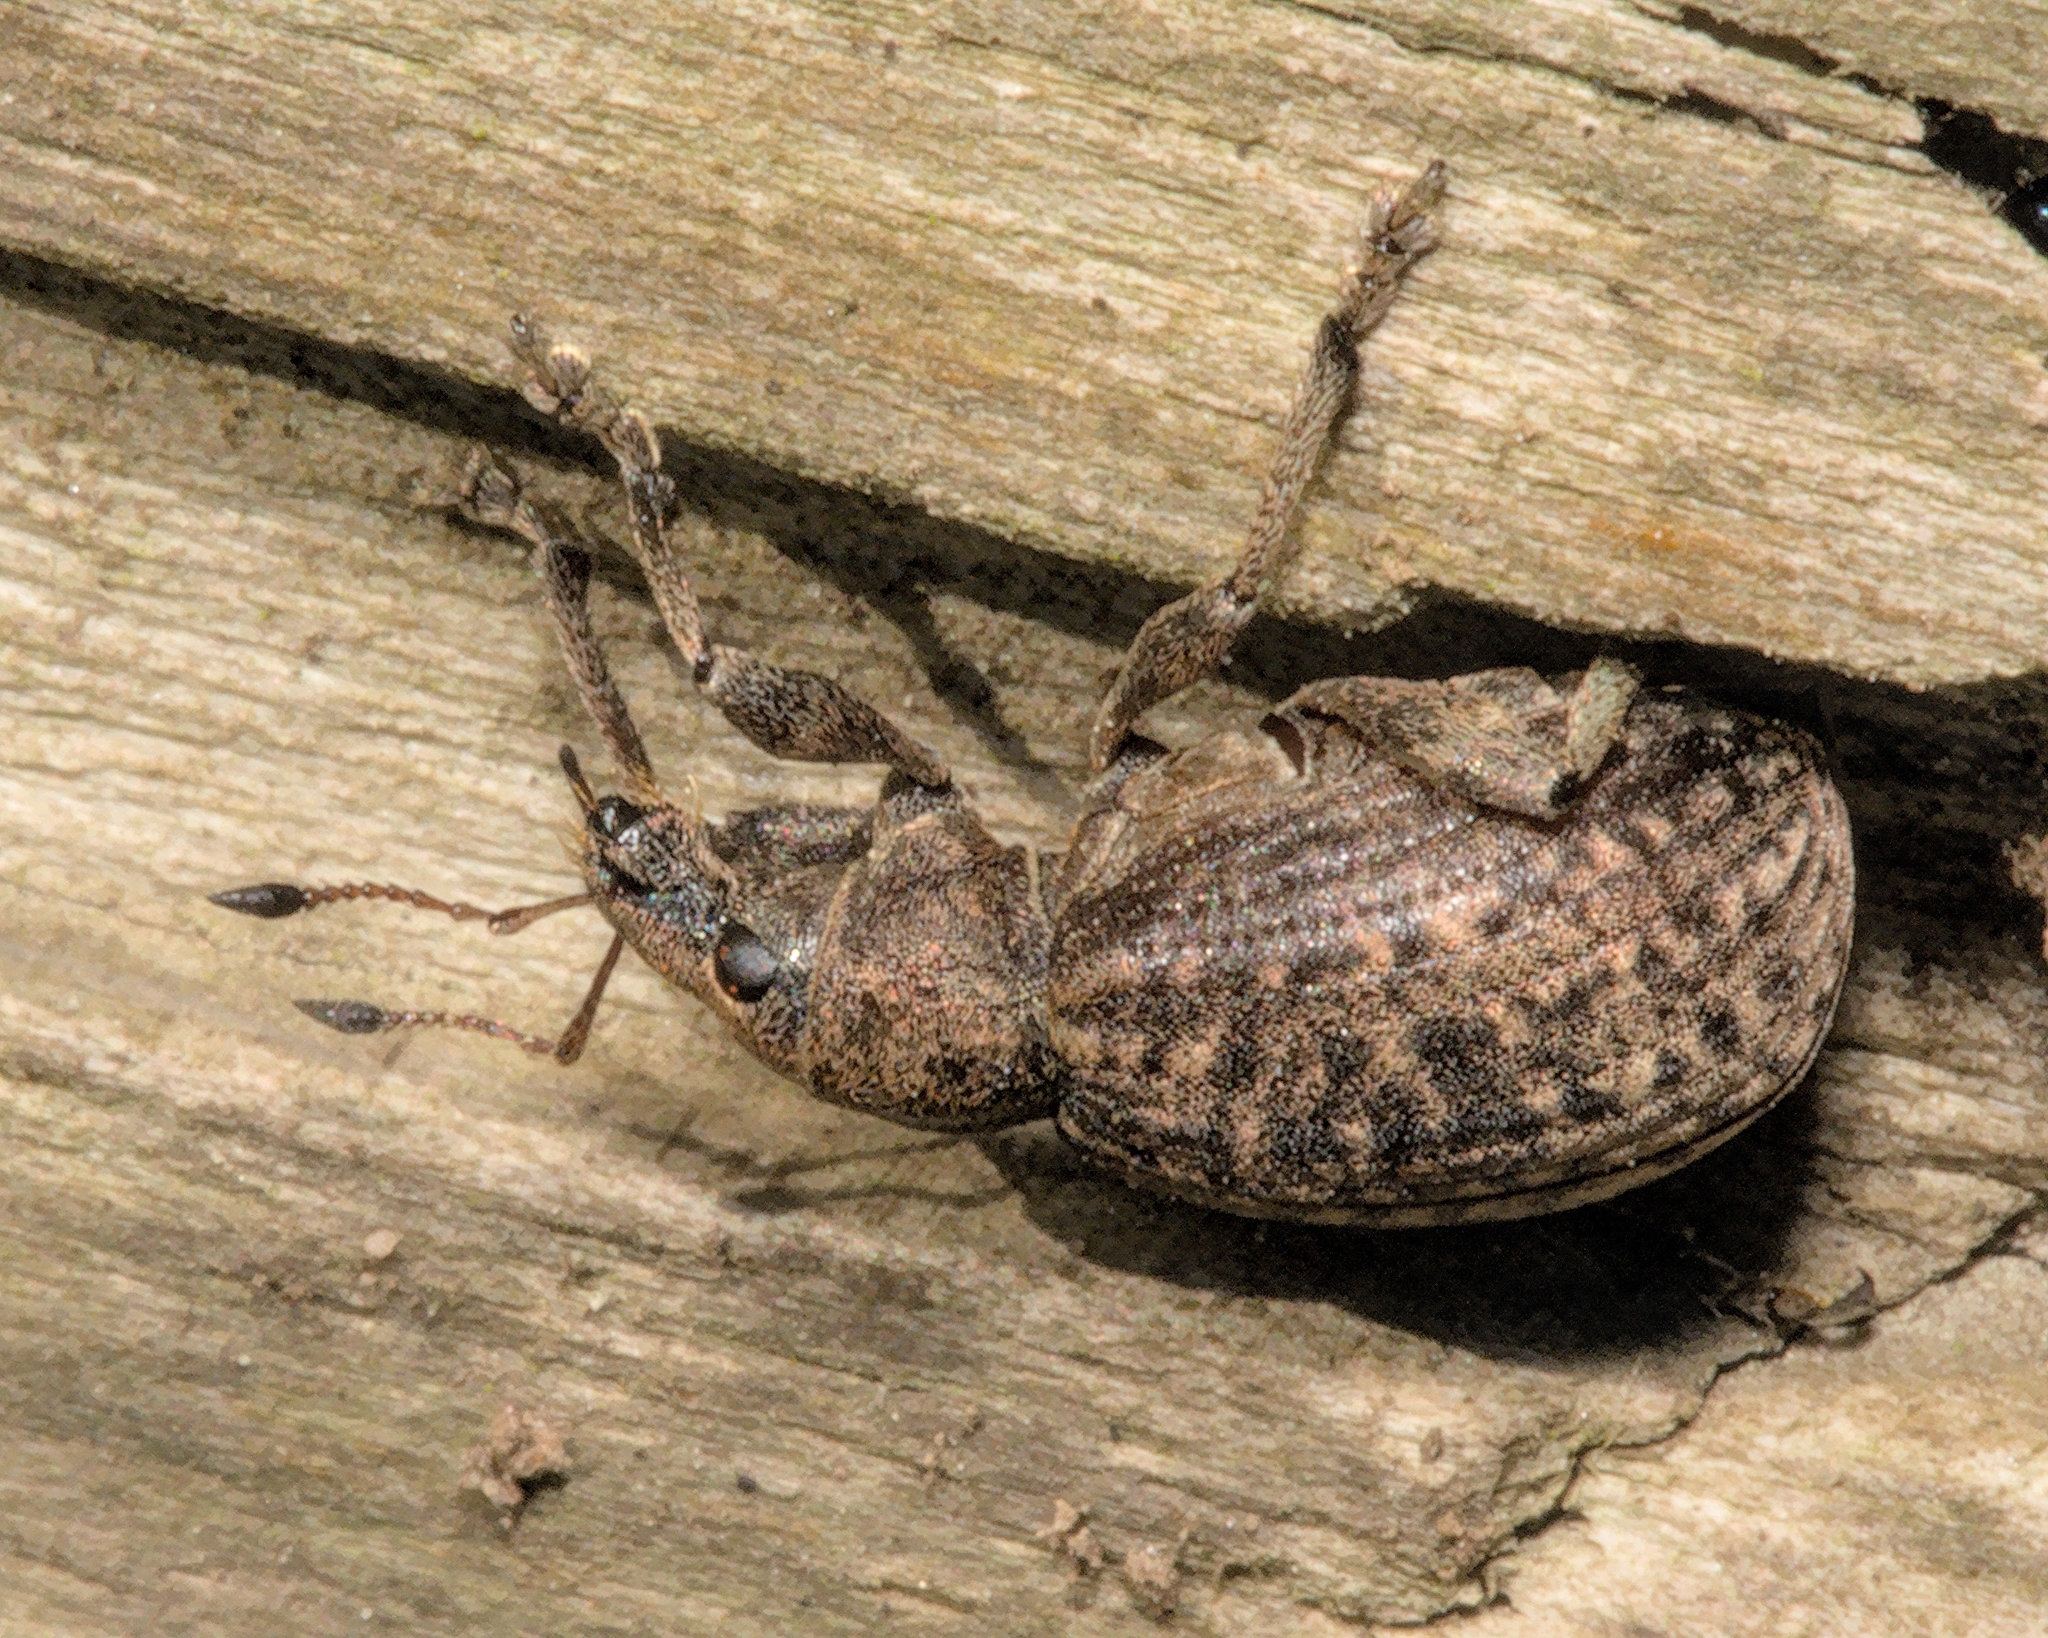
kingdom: Animalia
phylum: Arthropoda
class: Insecta
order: Coleoptera
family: Curculionidae
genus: Liophloeus
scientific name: Liophloeus tessulatus
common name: Weevil
